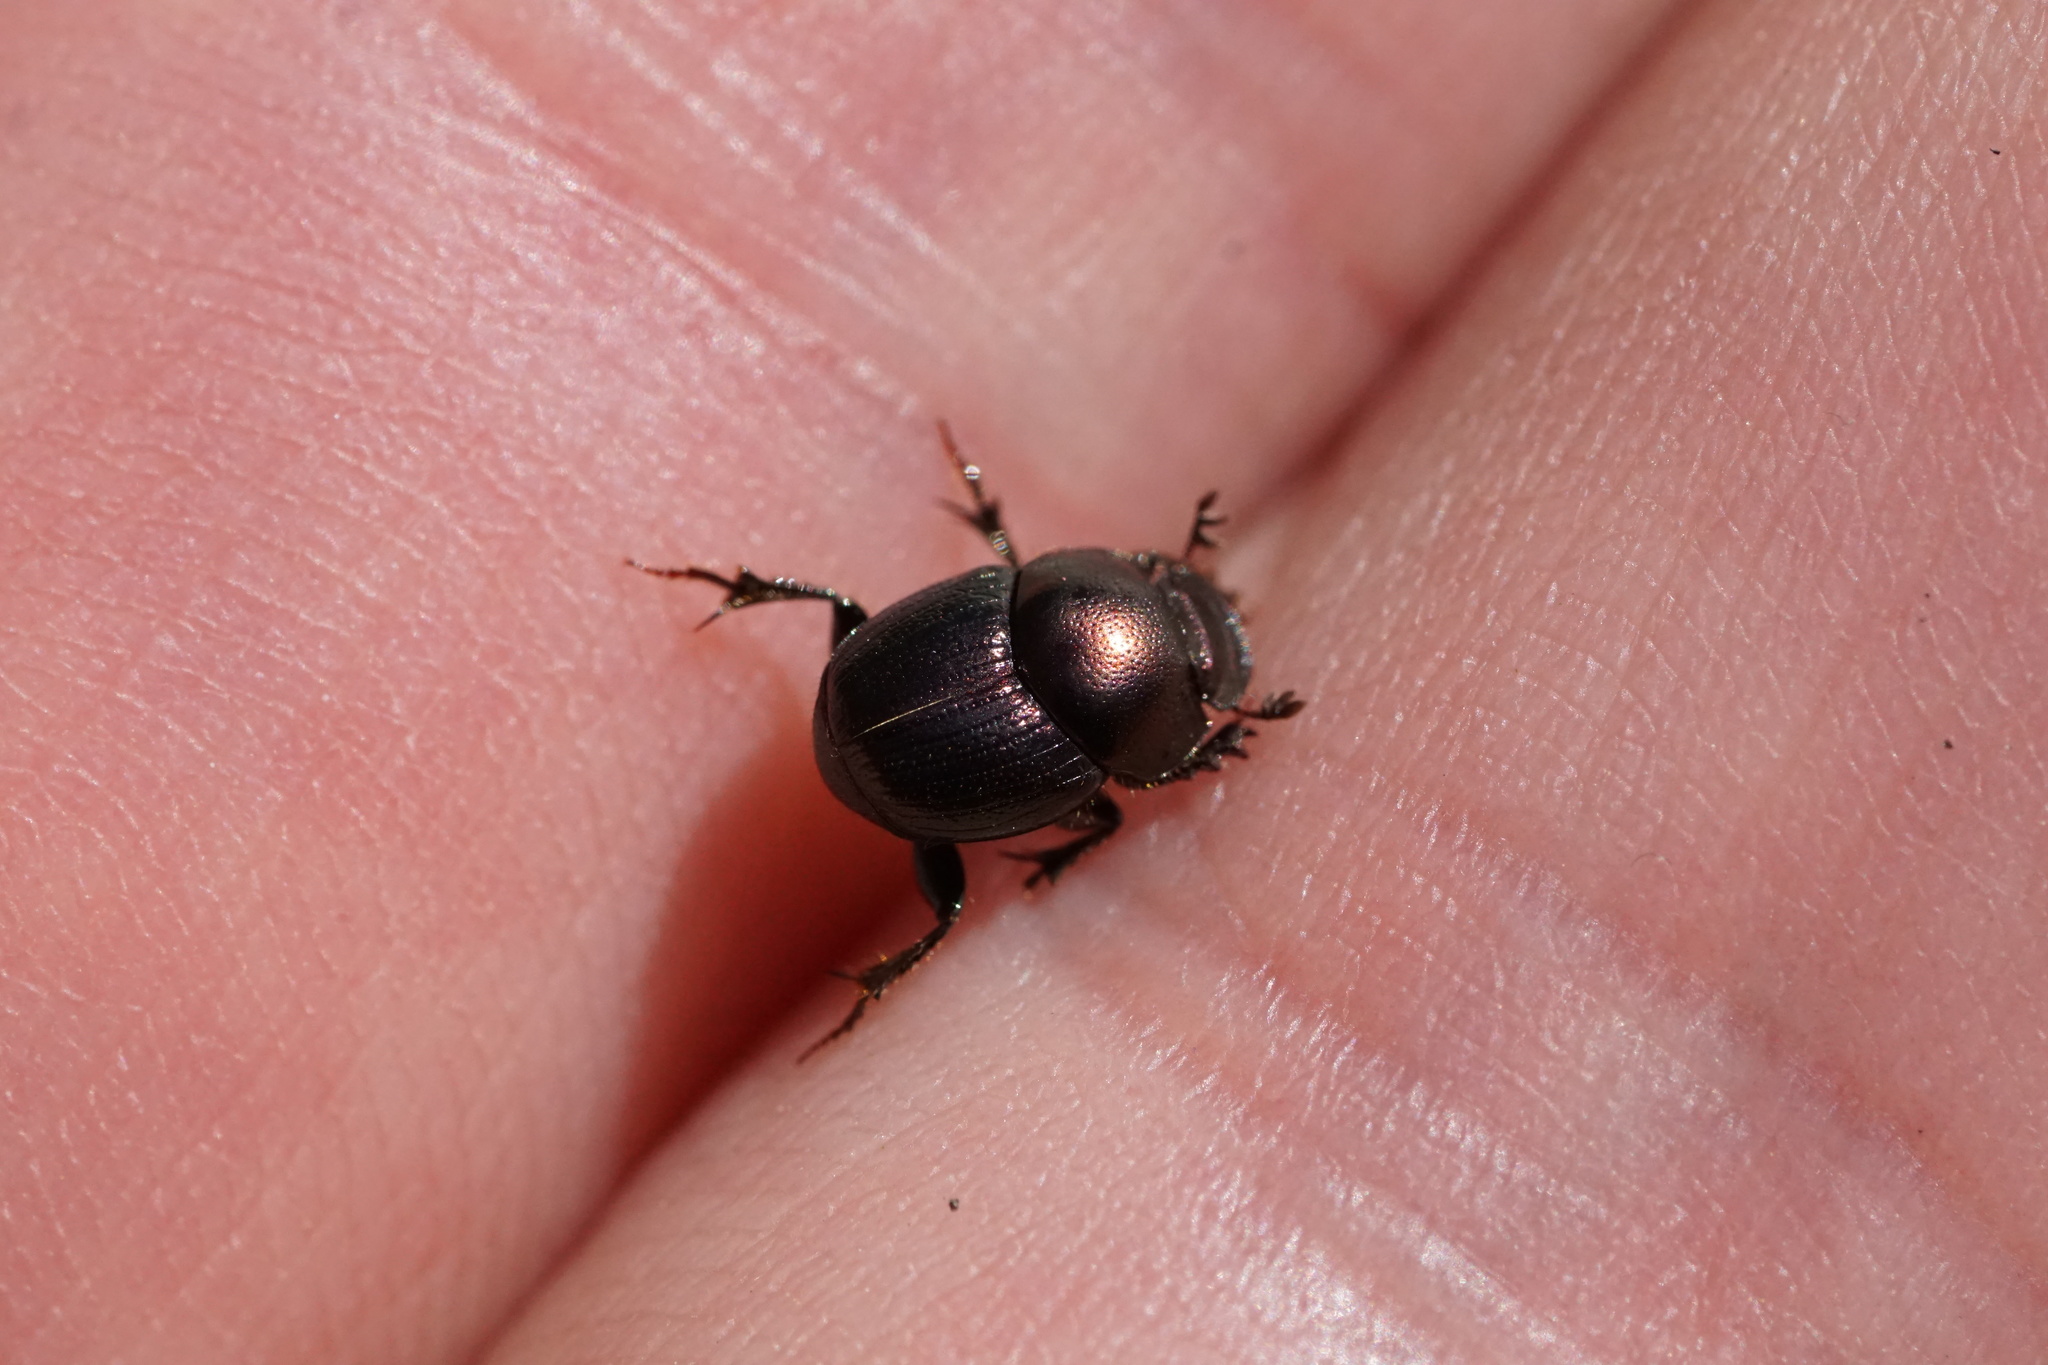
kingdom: Animalia
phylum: Arthropoda
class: Insecta
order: Coleoptera
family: Scarabaeidae
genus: Onthophagus
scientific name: Onthophagus orpheus
